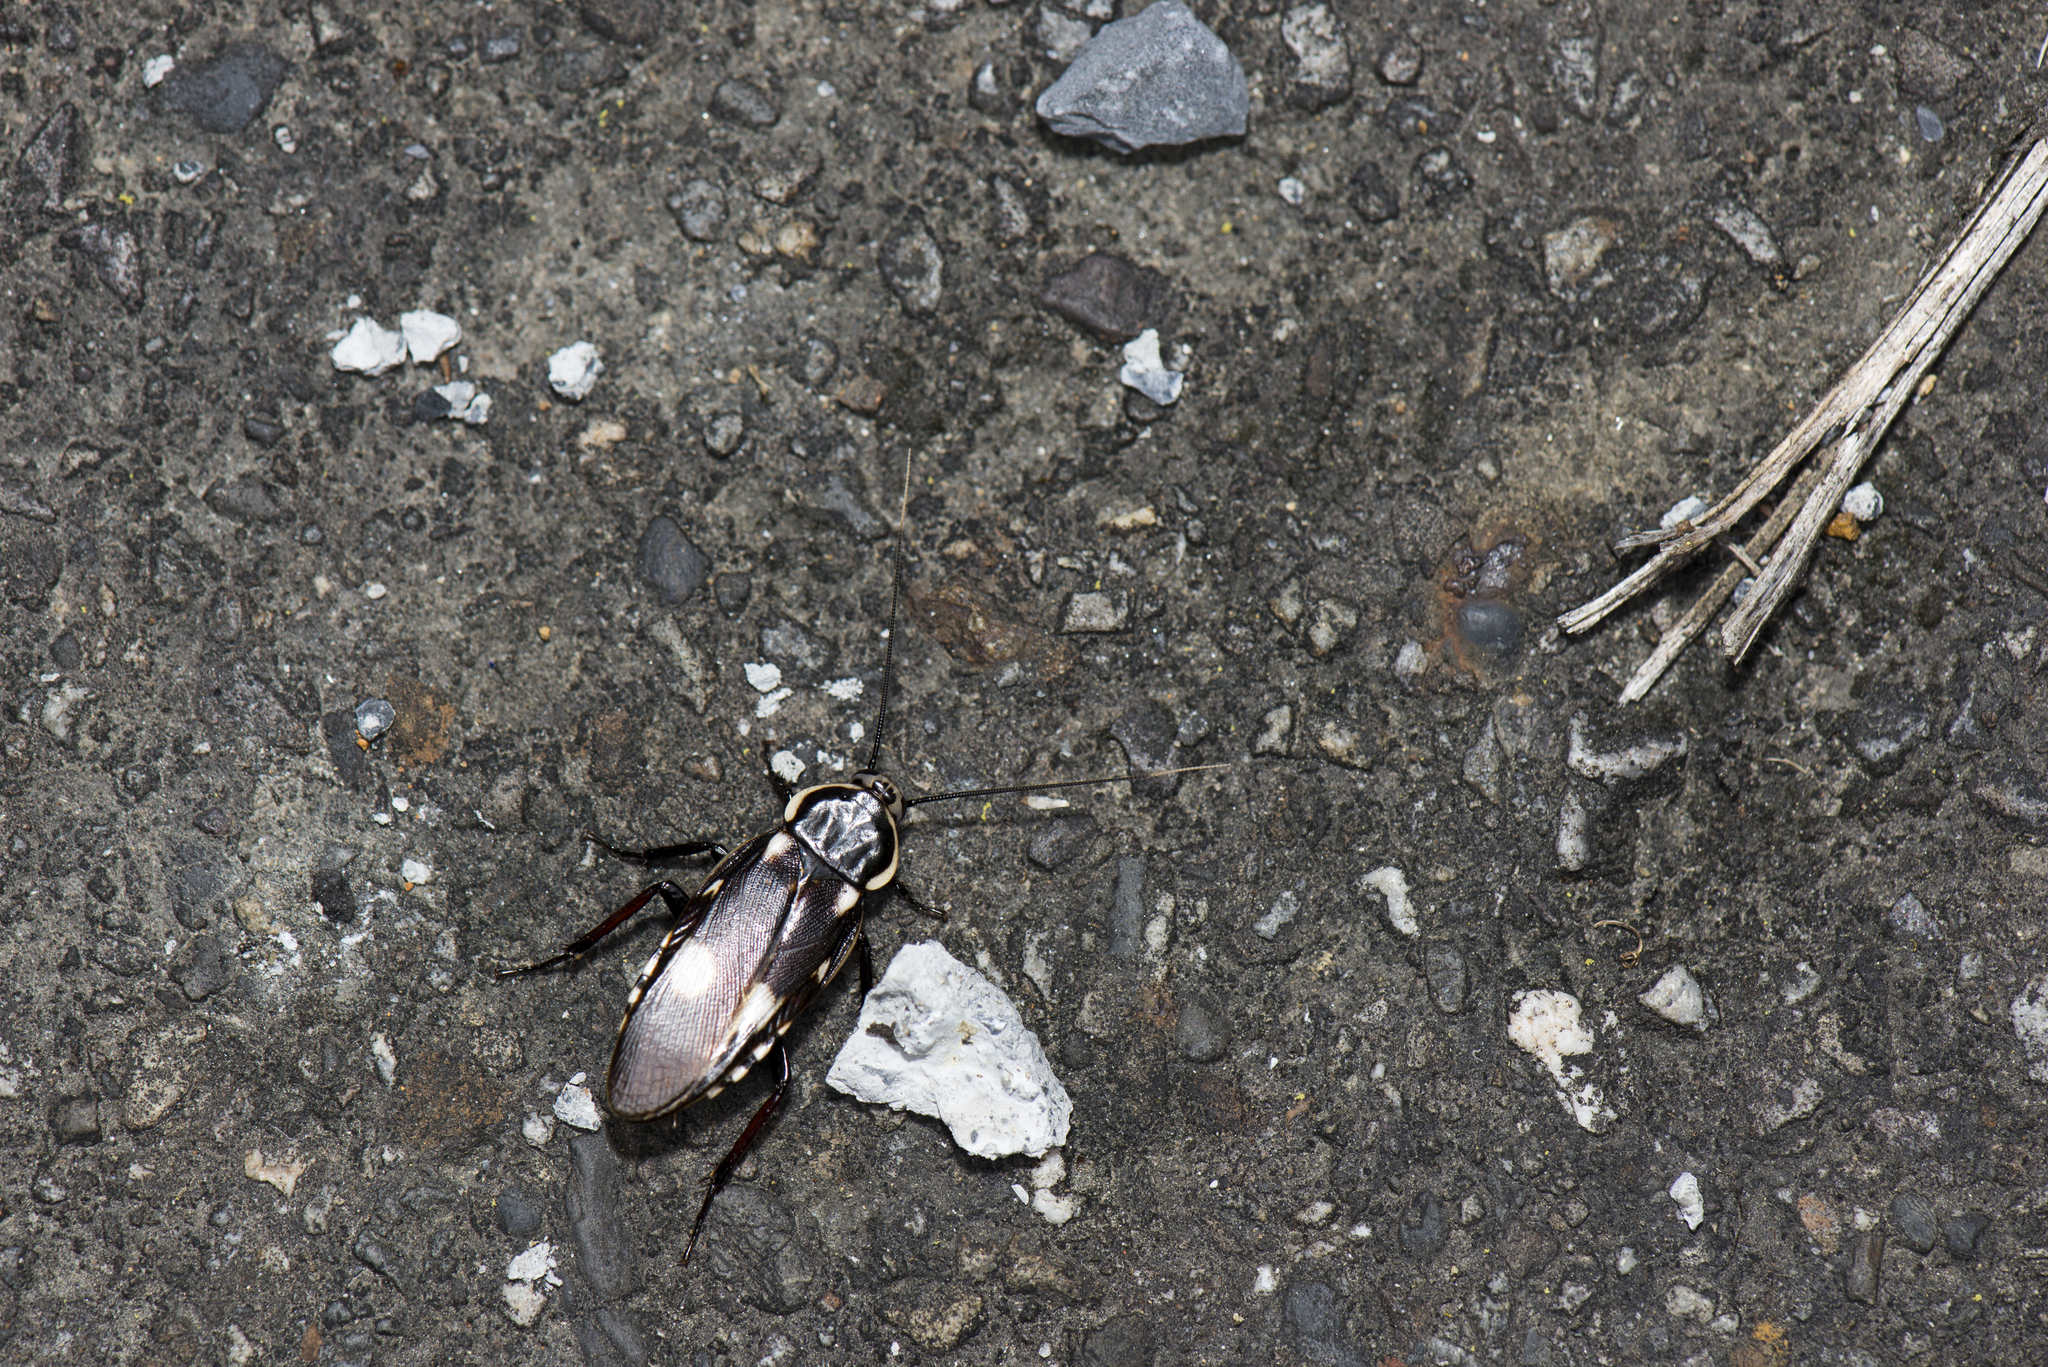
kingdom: Animalia
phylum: Arthropoda
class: Insecta
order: Blattodea
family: Blaberidae
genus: Paranauphoeta
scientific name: Paranauphoeta formosana
